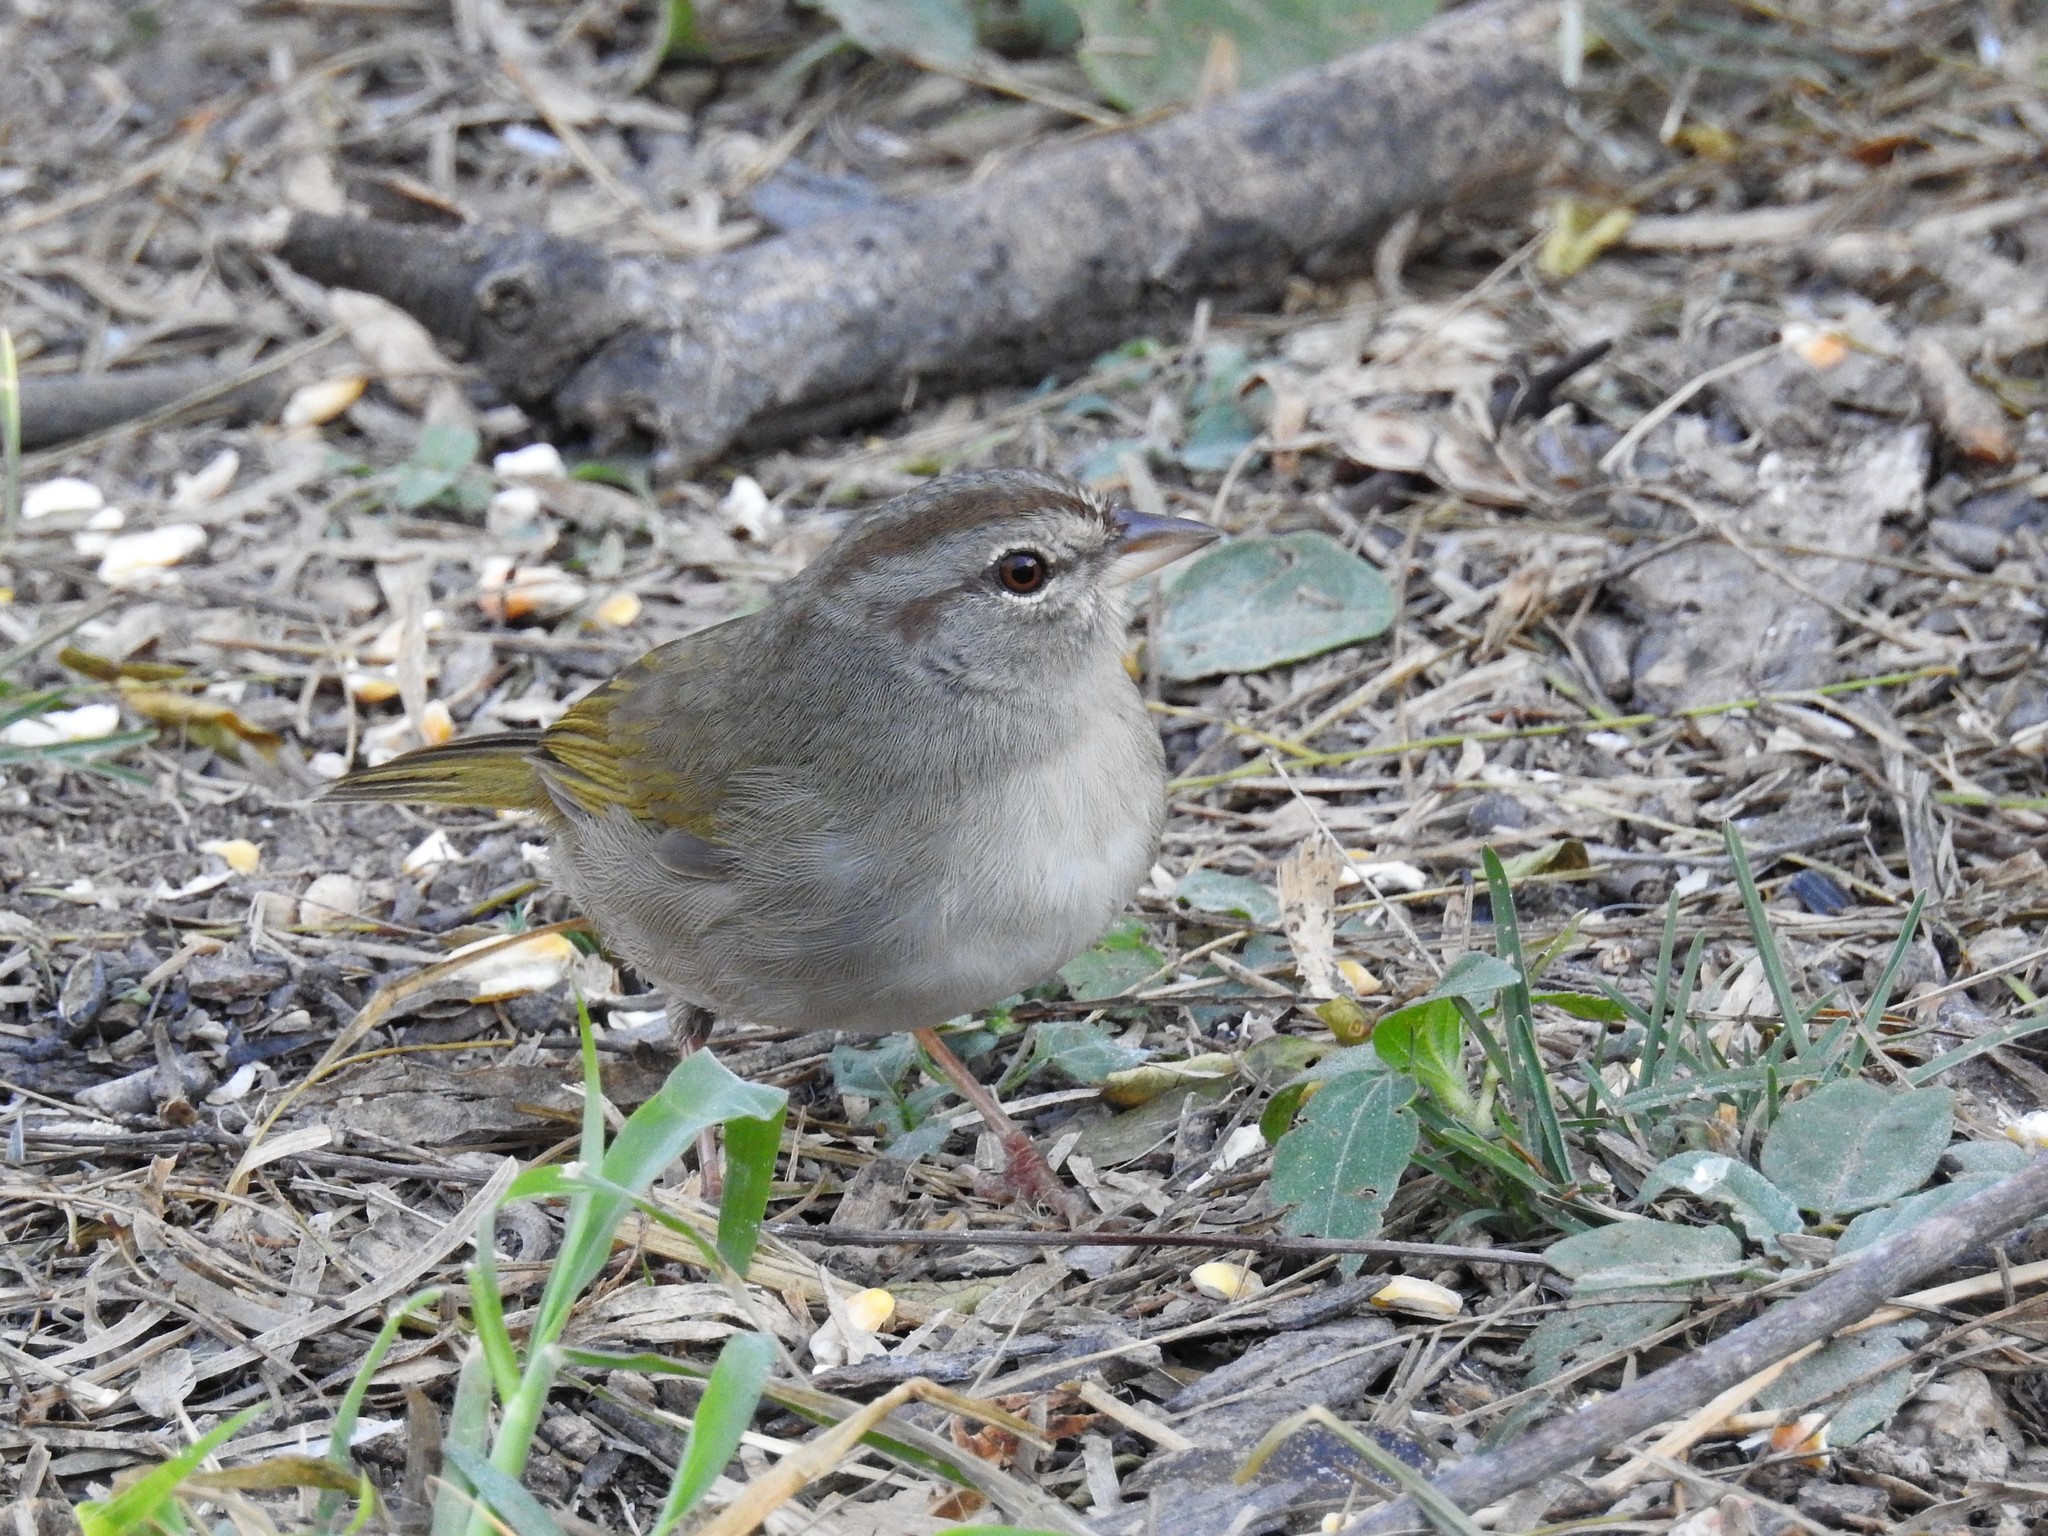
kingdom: Animalia
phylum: Chordata
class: Aves
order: Passeriformes
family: Passerellidae
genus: Arremonops
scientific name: Arremonops rufivirgatus
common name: Olive sparrow
